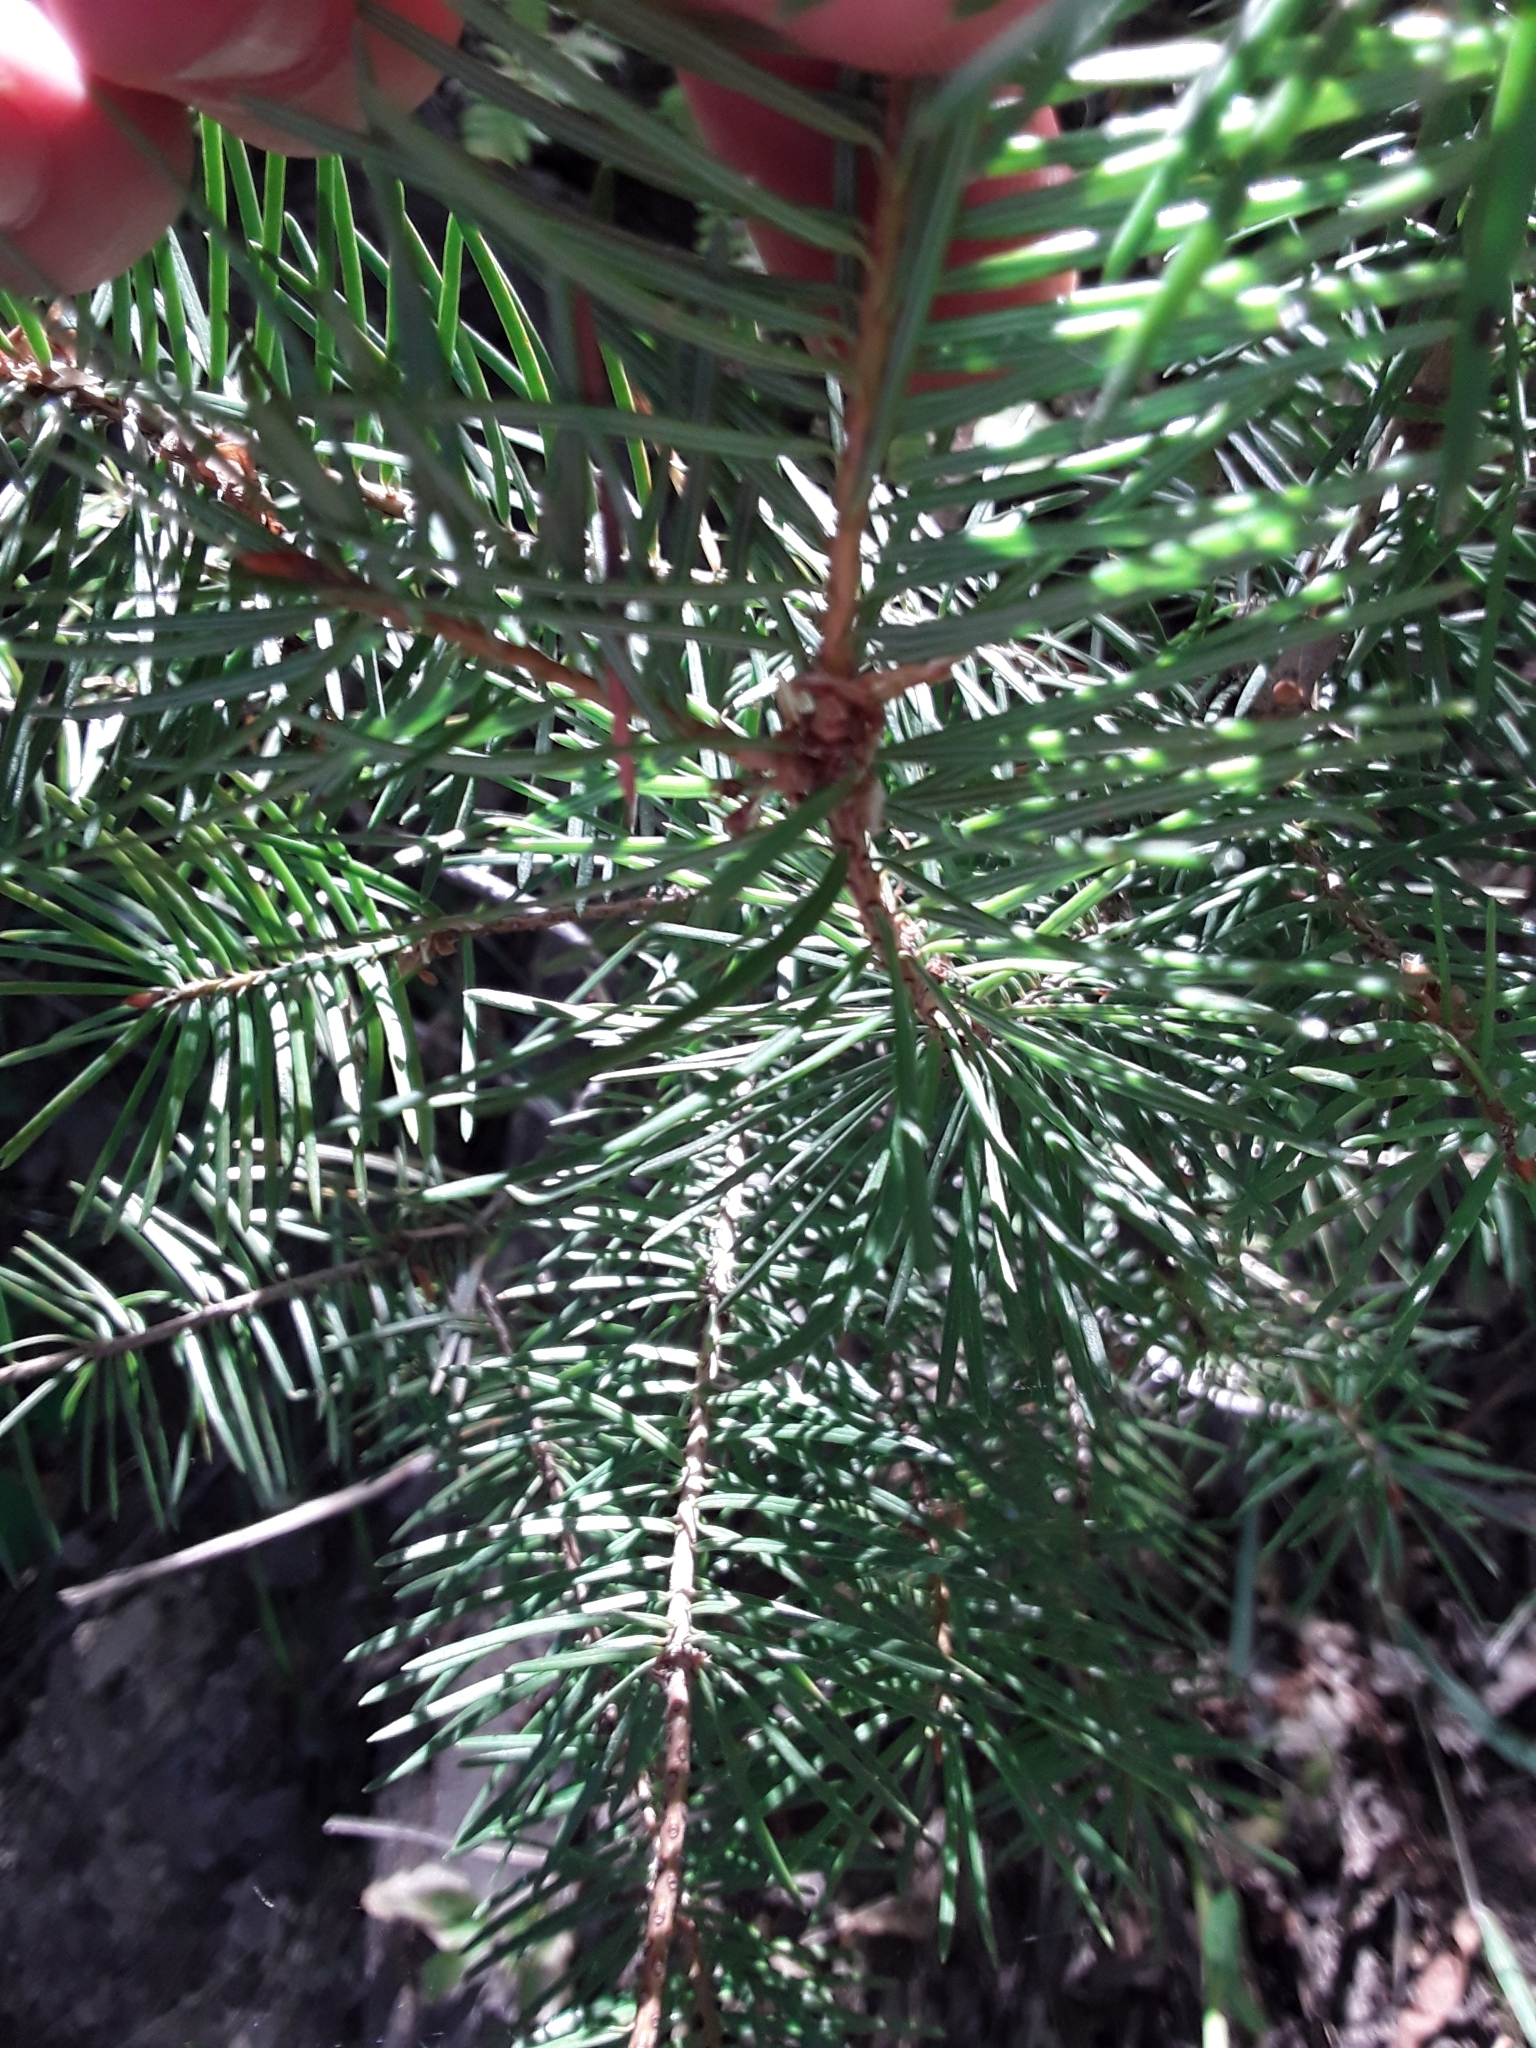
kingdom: Plantae
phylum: Tracheophyta
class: Pinopsida
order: Pinales
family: Pinaceae
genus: Pseudotsuga
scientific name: Pseudotsuga menziesii
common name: Douglas fir
